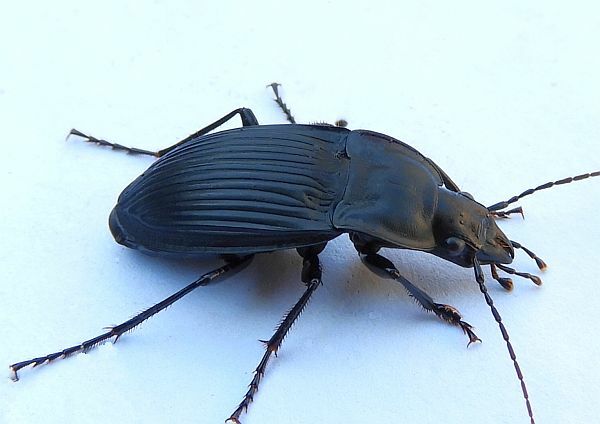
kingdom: Animalia
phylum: Arthropoda
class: Insecta
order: Coleoptera
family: Carabidae
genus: Dicaelus
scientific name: Dicaelus dilatatus
